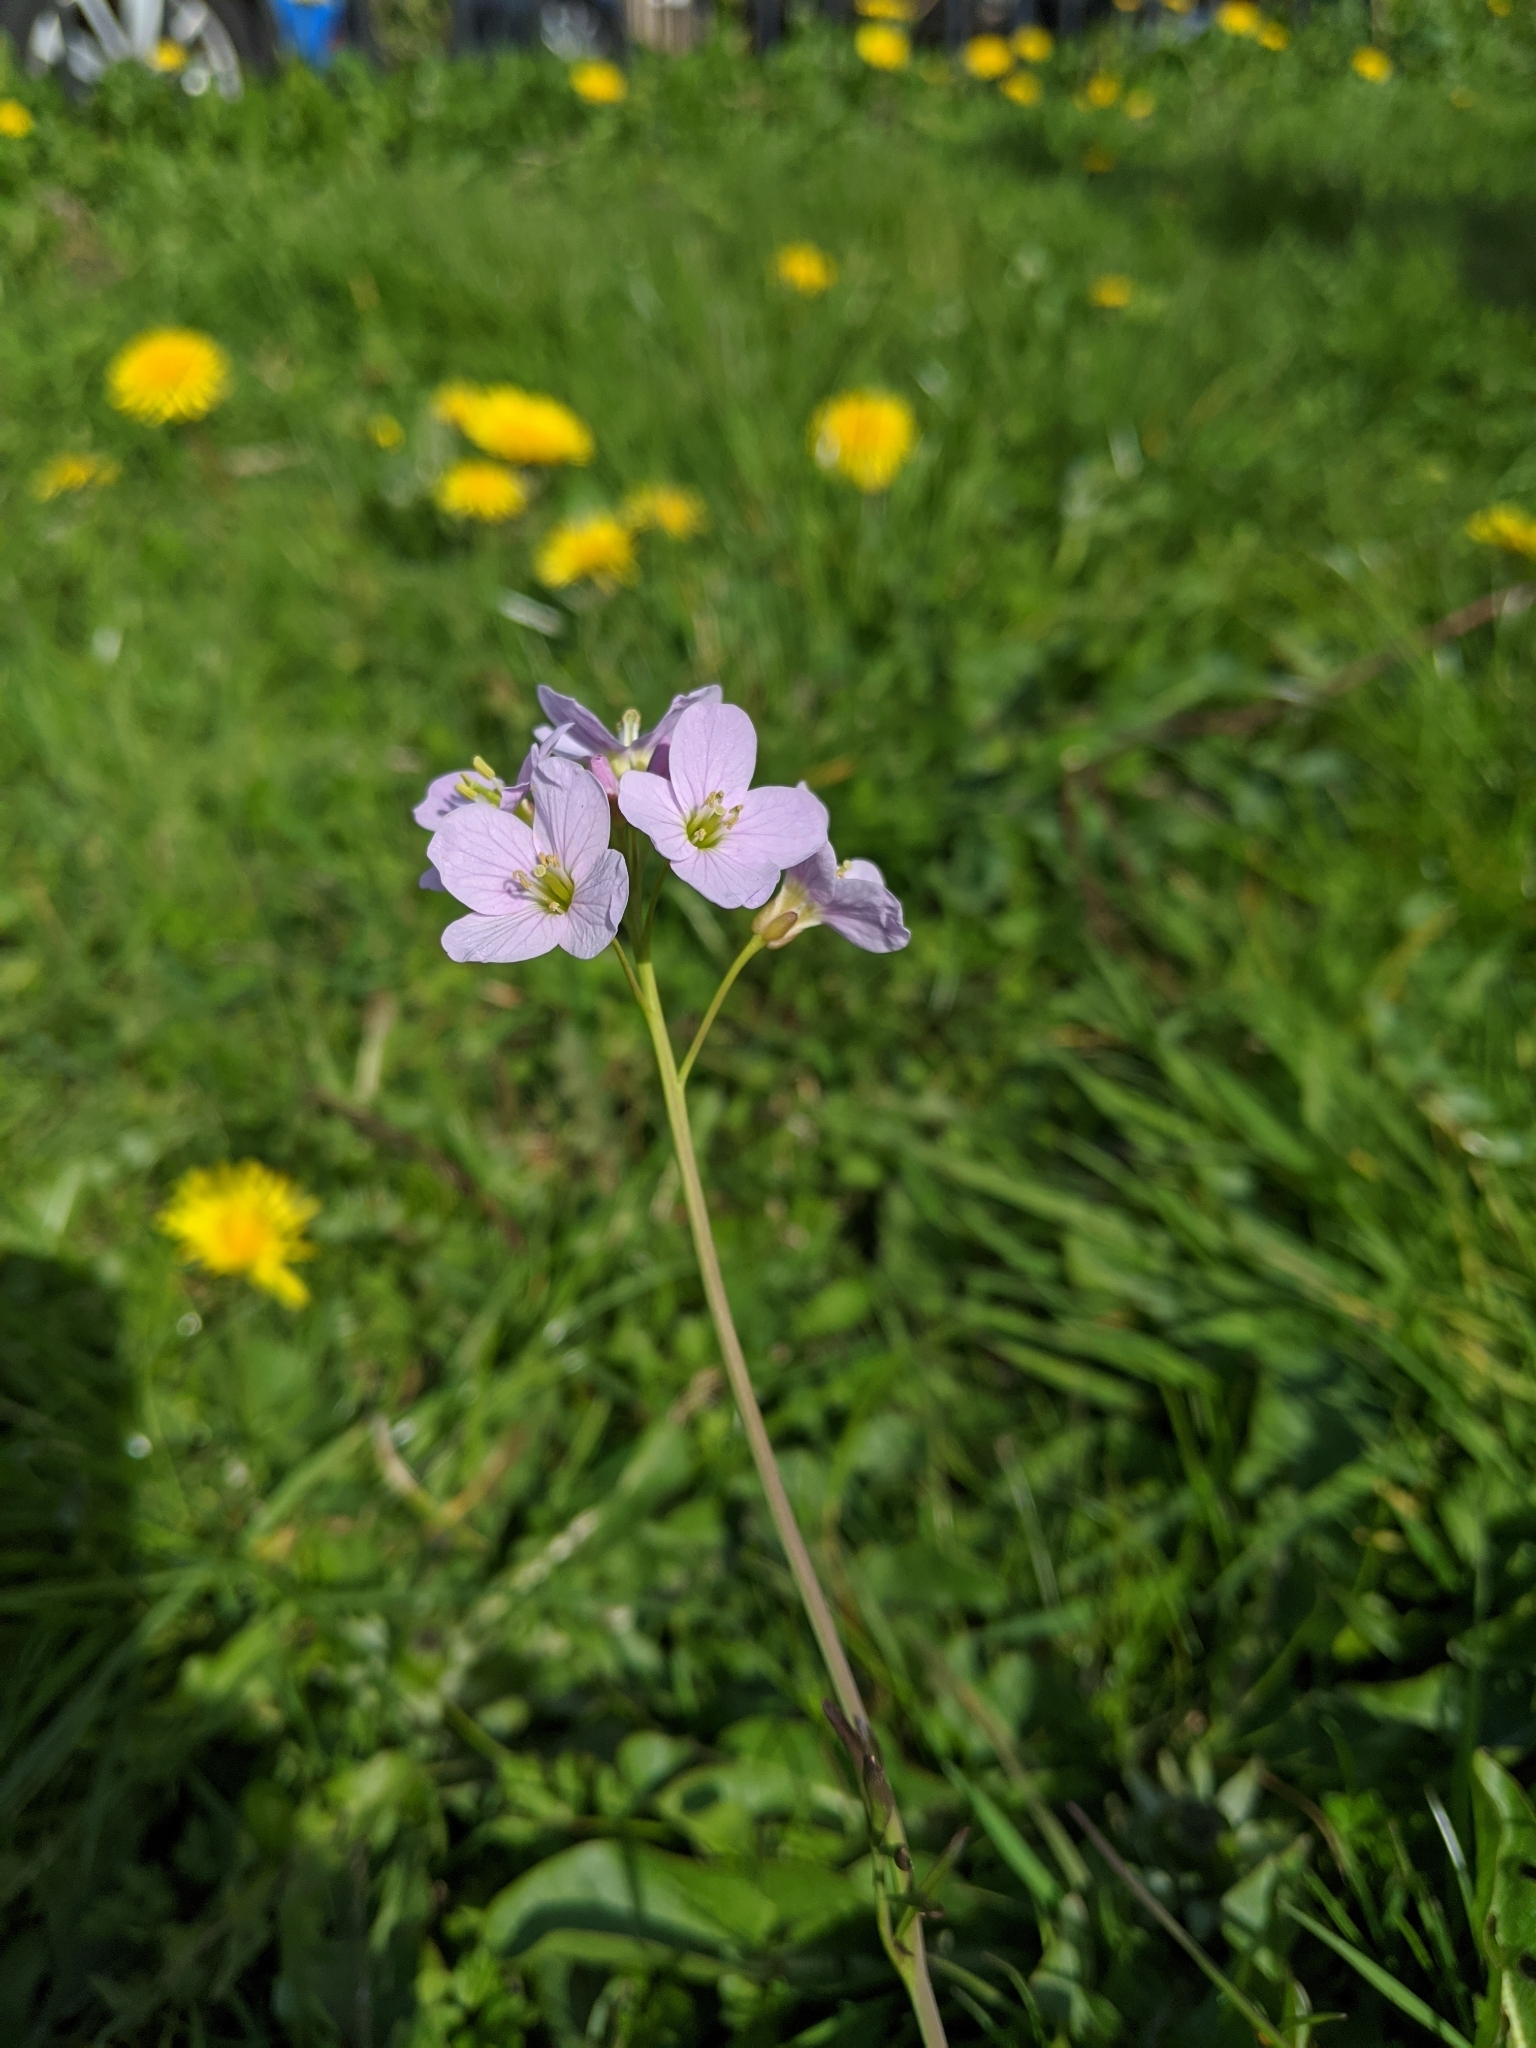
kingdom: Plantae
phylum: Tracheophyta
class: Magnoliopsida
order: Brassicales
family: Brassicaceae
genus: Cardamine
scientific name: Cardamine pratensis
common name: Cuckoo flower
